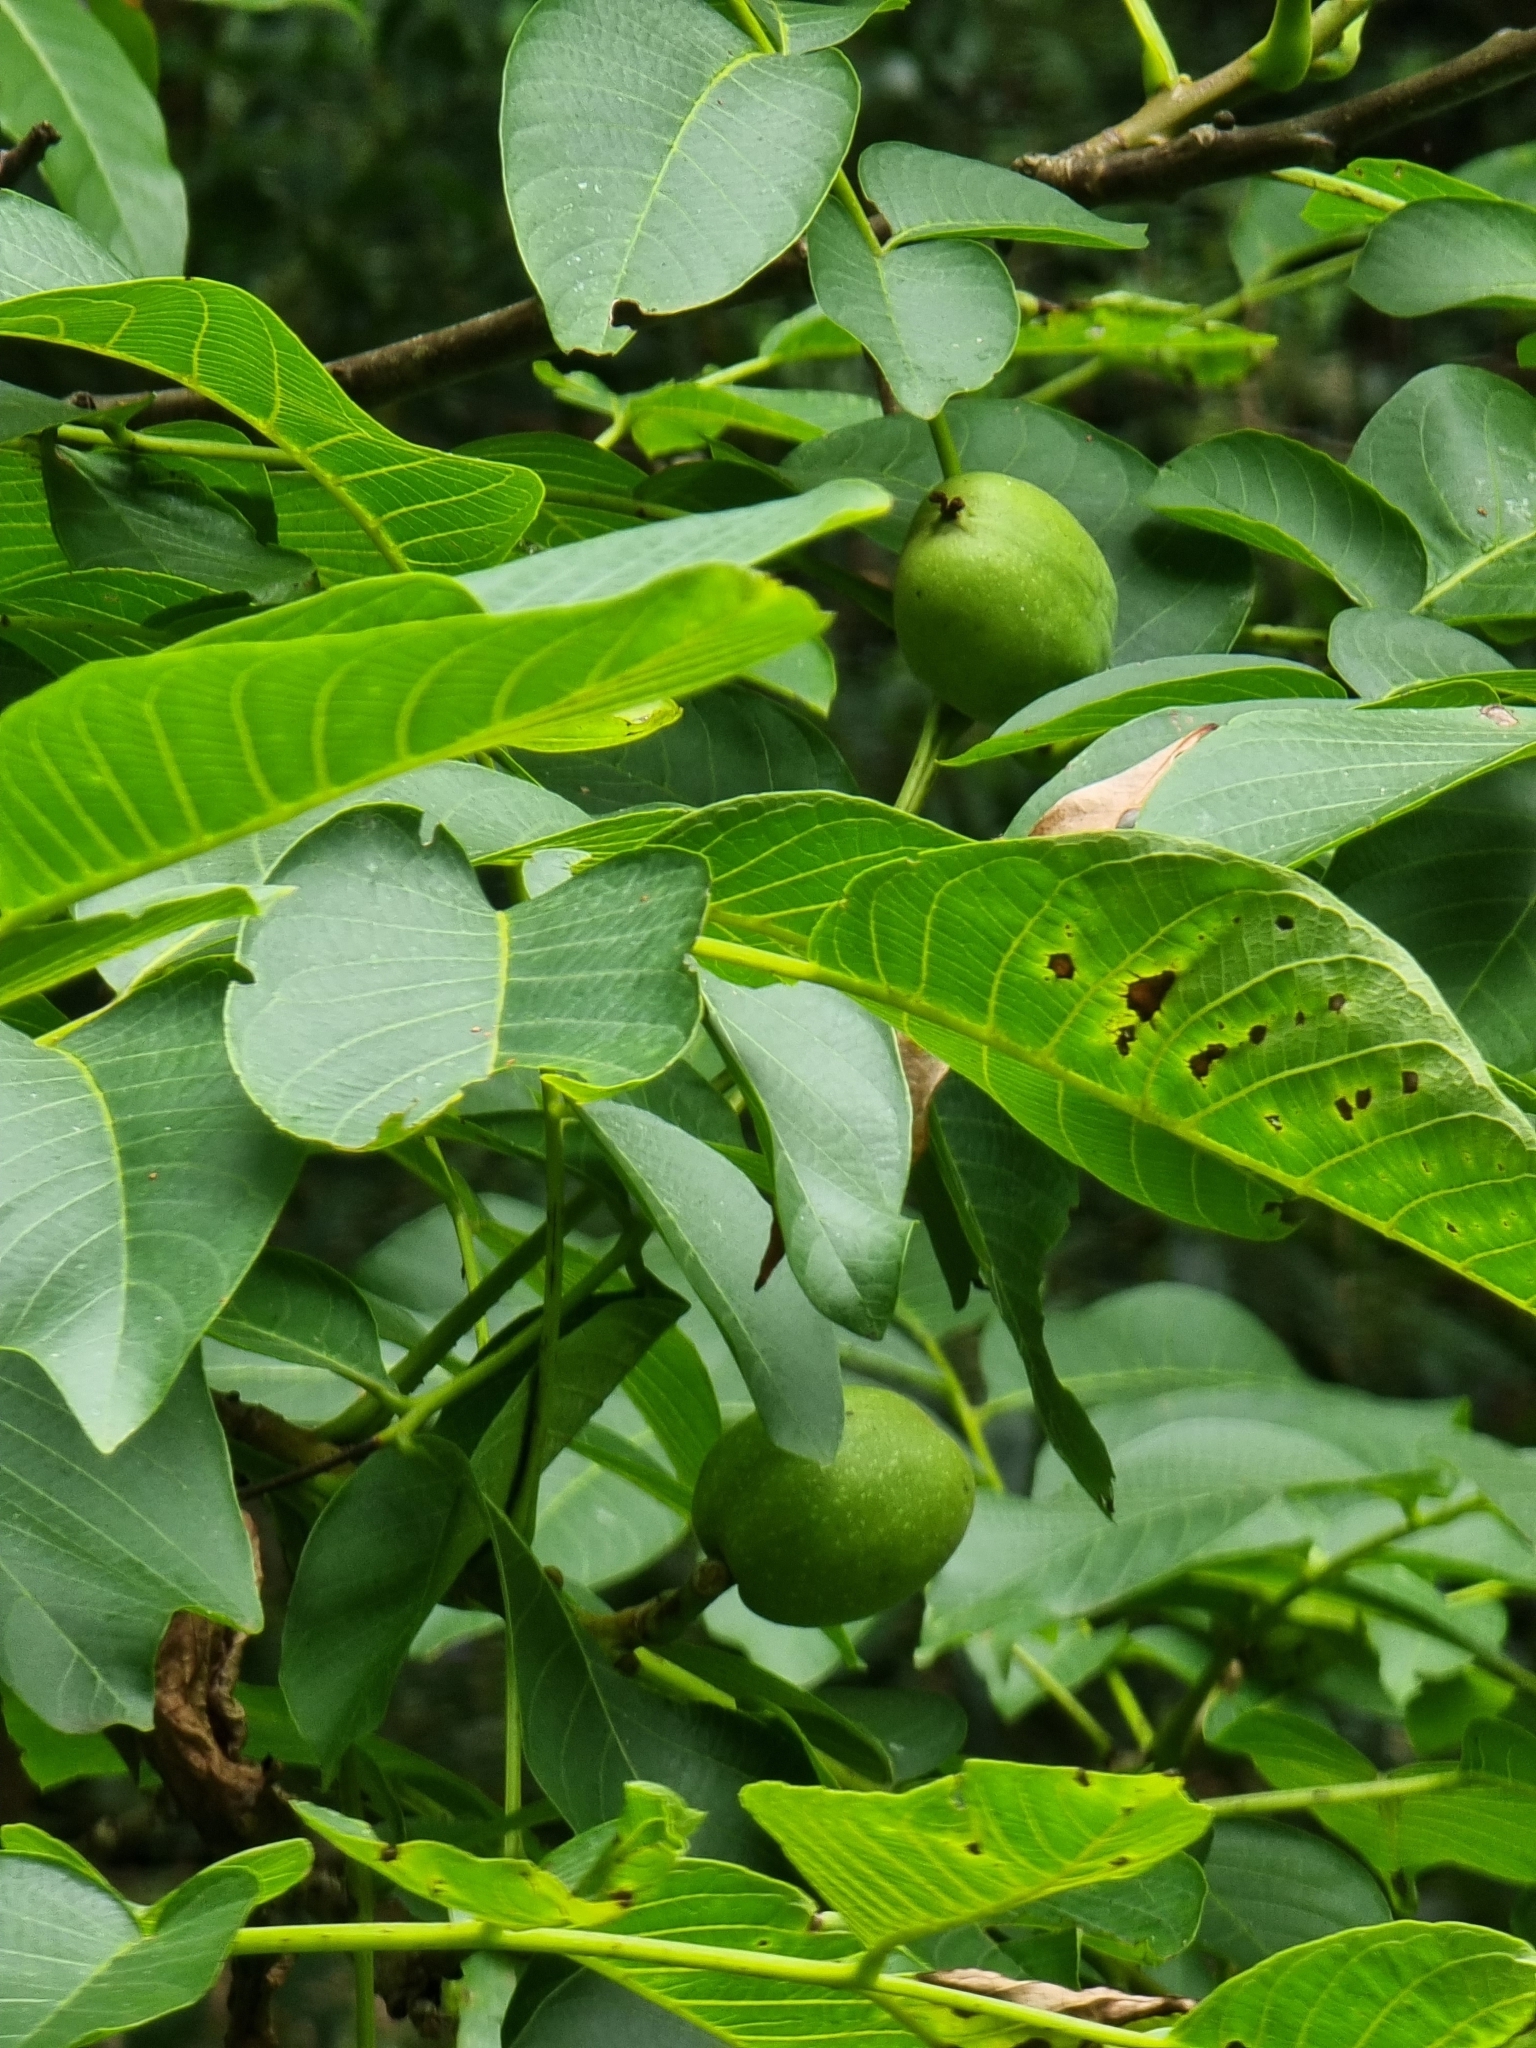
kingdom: Plantae
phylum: Tracheophyta
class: Magnoliopsida
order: Fagales
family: Juglandaceae
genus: Juglans
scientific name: Juglans regia
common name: Walnut
